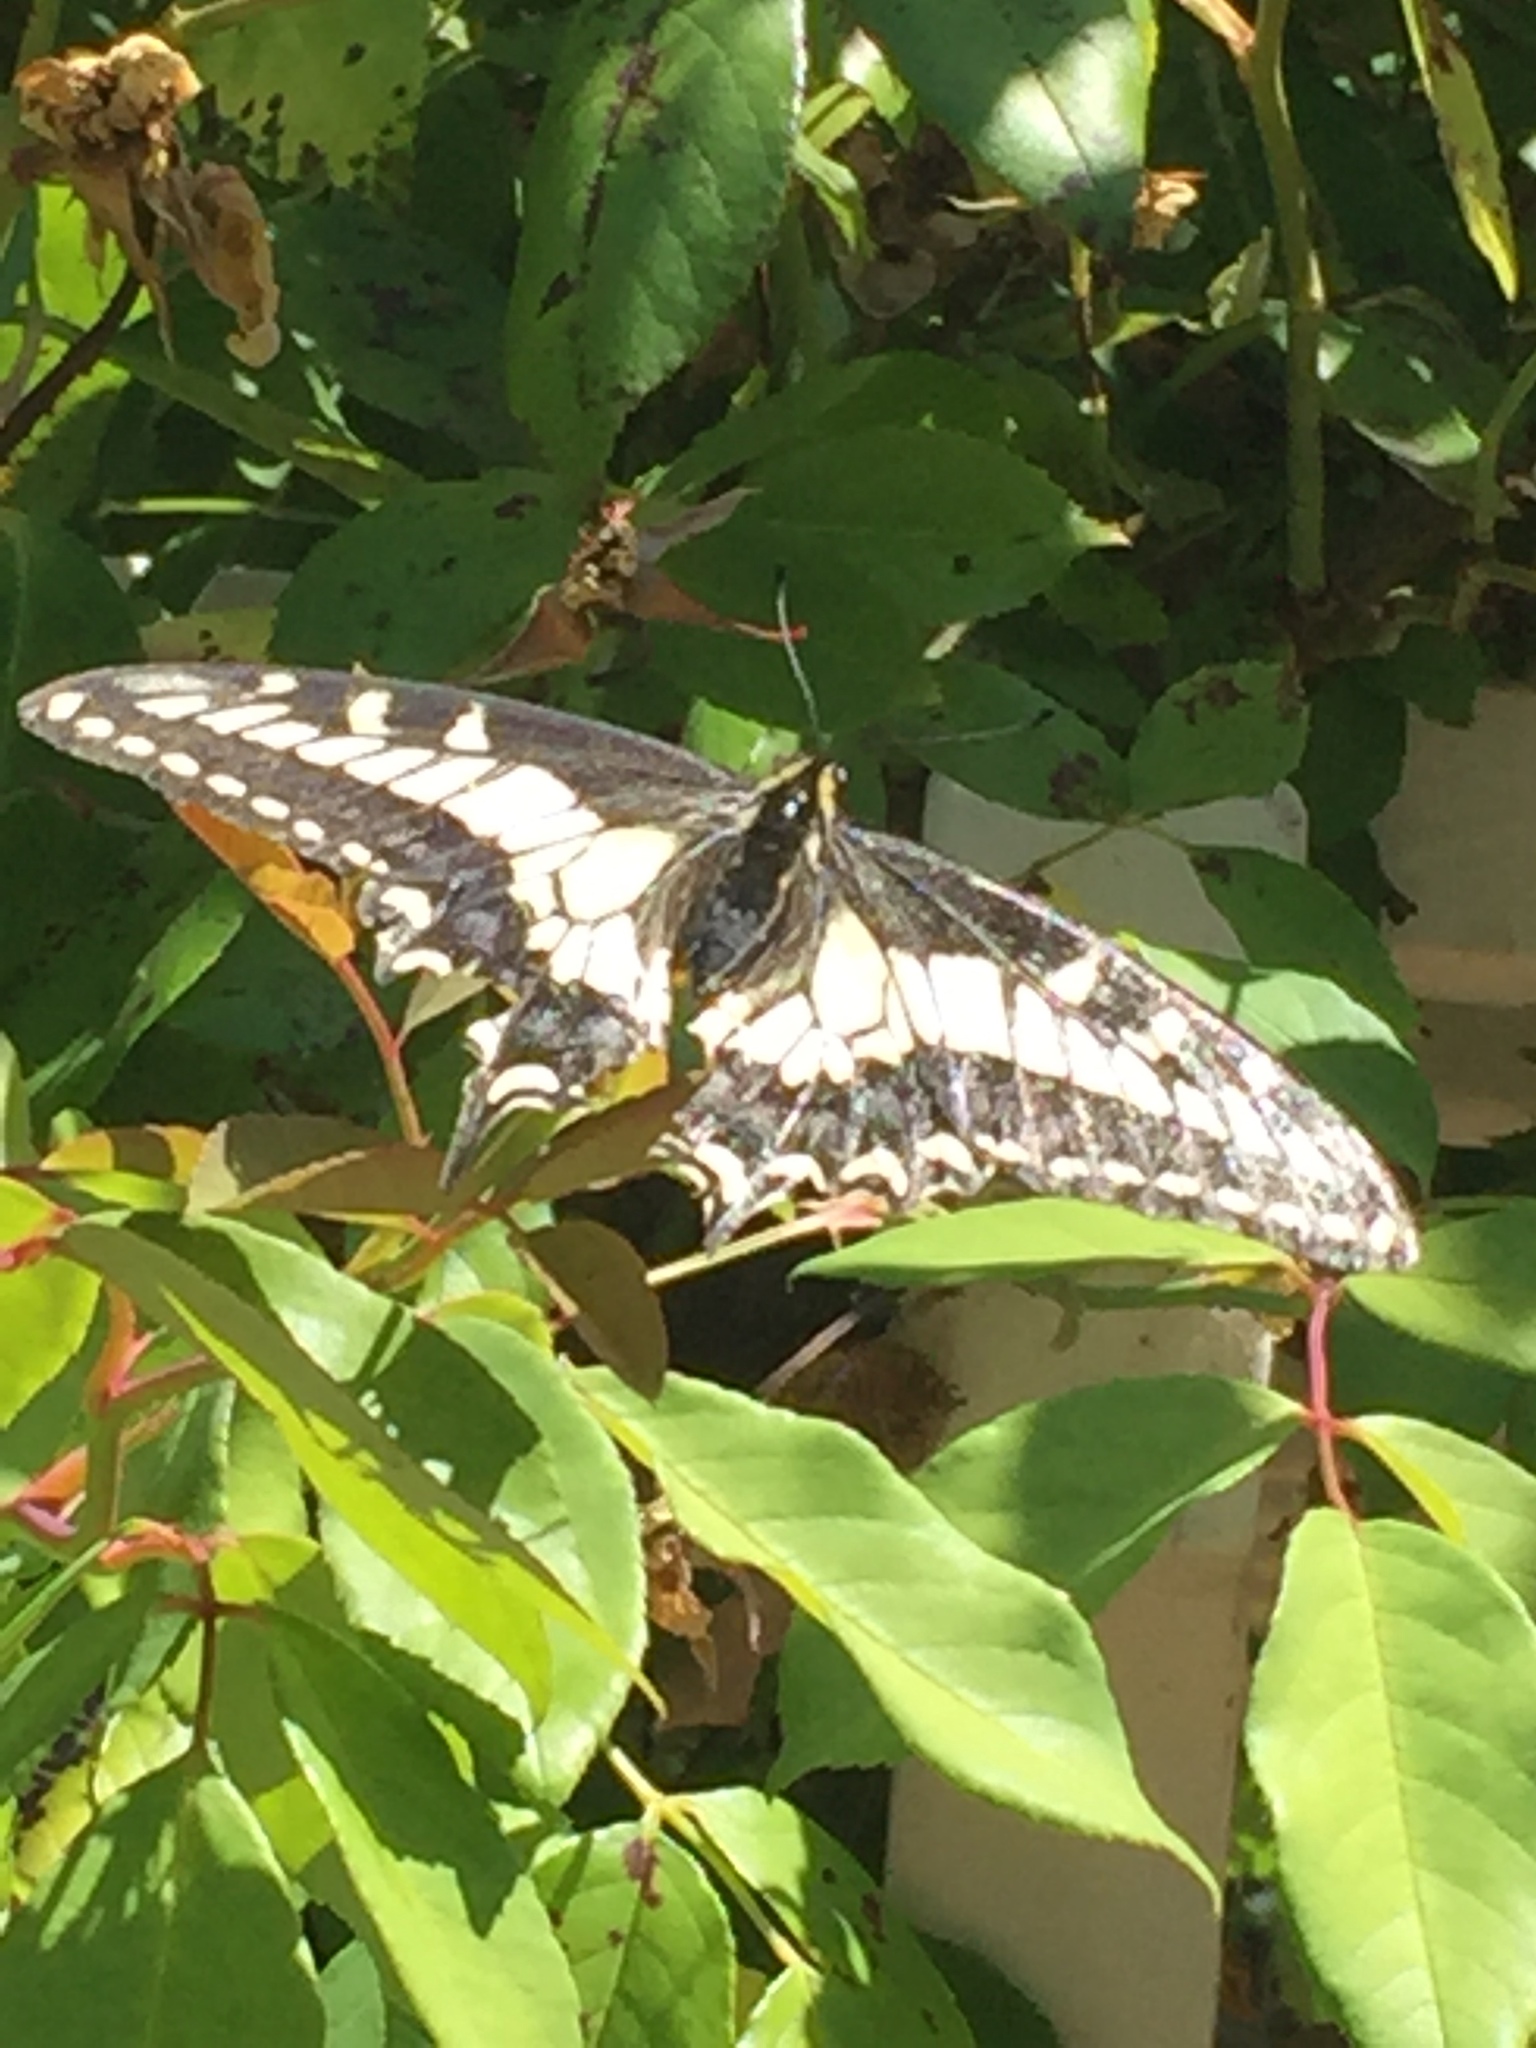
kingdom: Animalia
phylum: Arthropoda
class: Insecta
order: Lepidoptera
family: Papilionidae
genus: Papilio
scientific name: Papilio zelicaon
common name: Anise swallowtail
